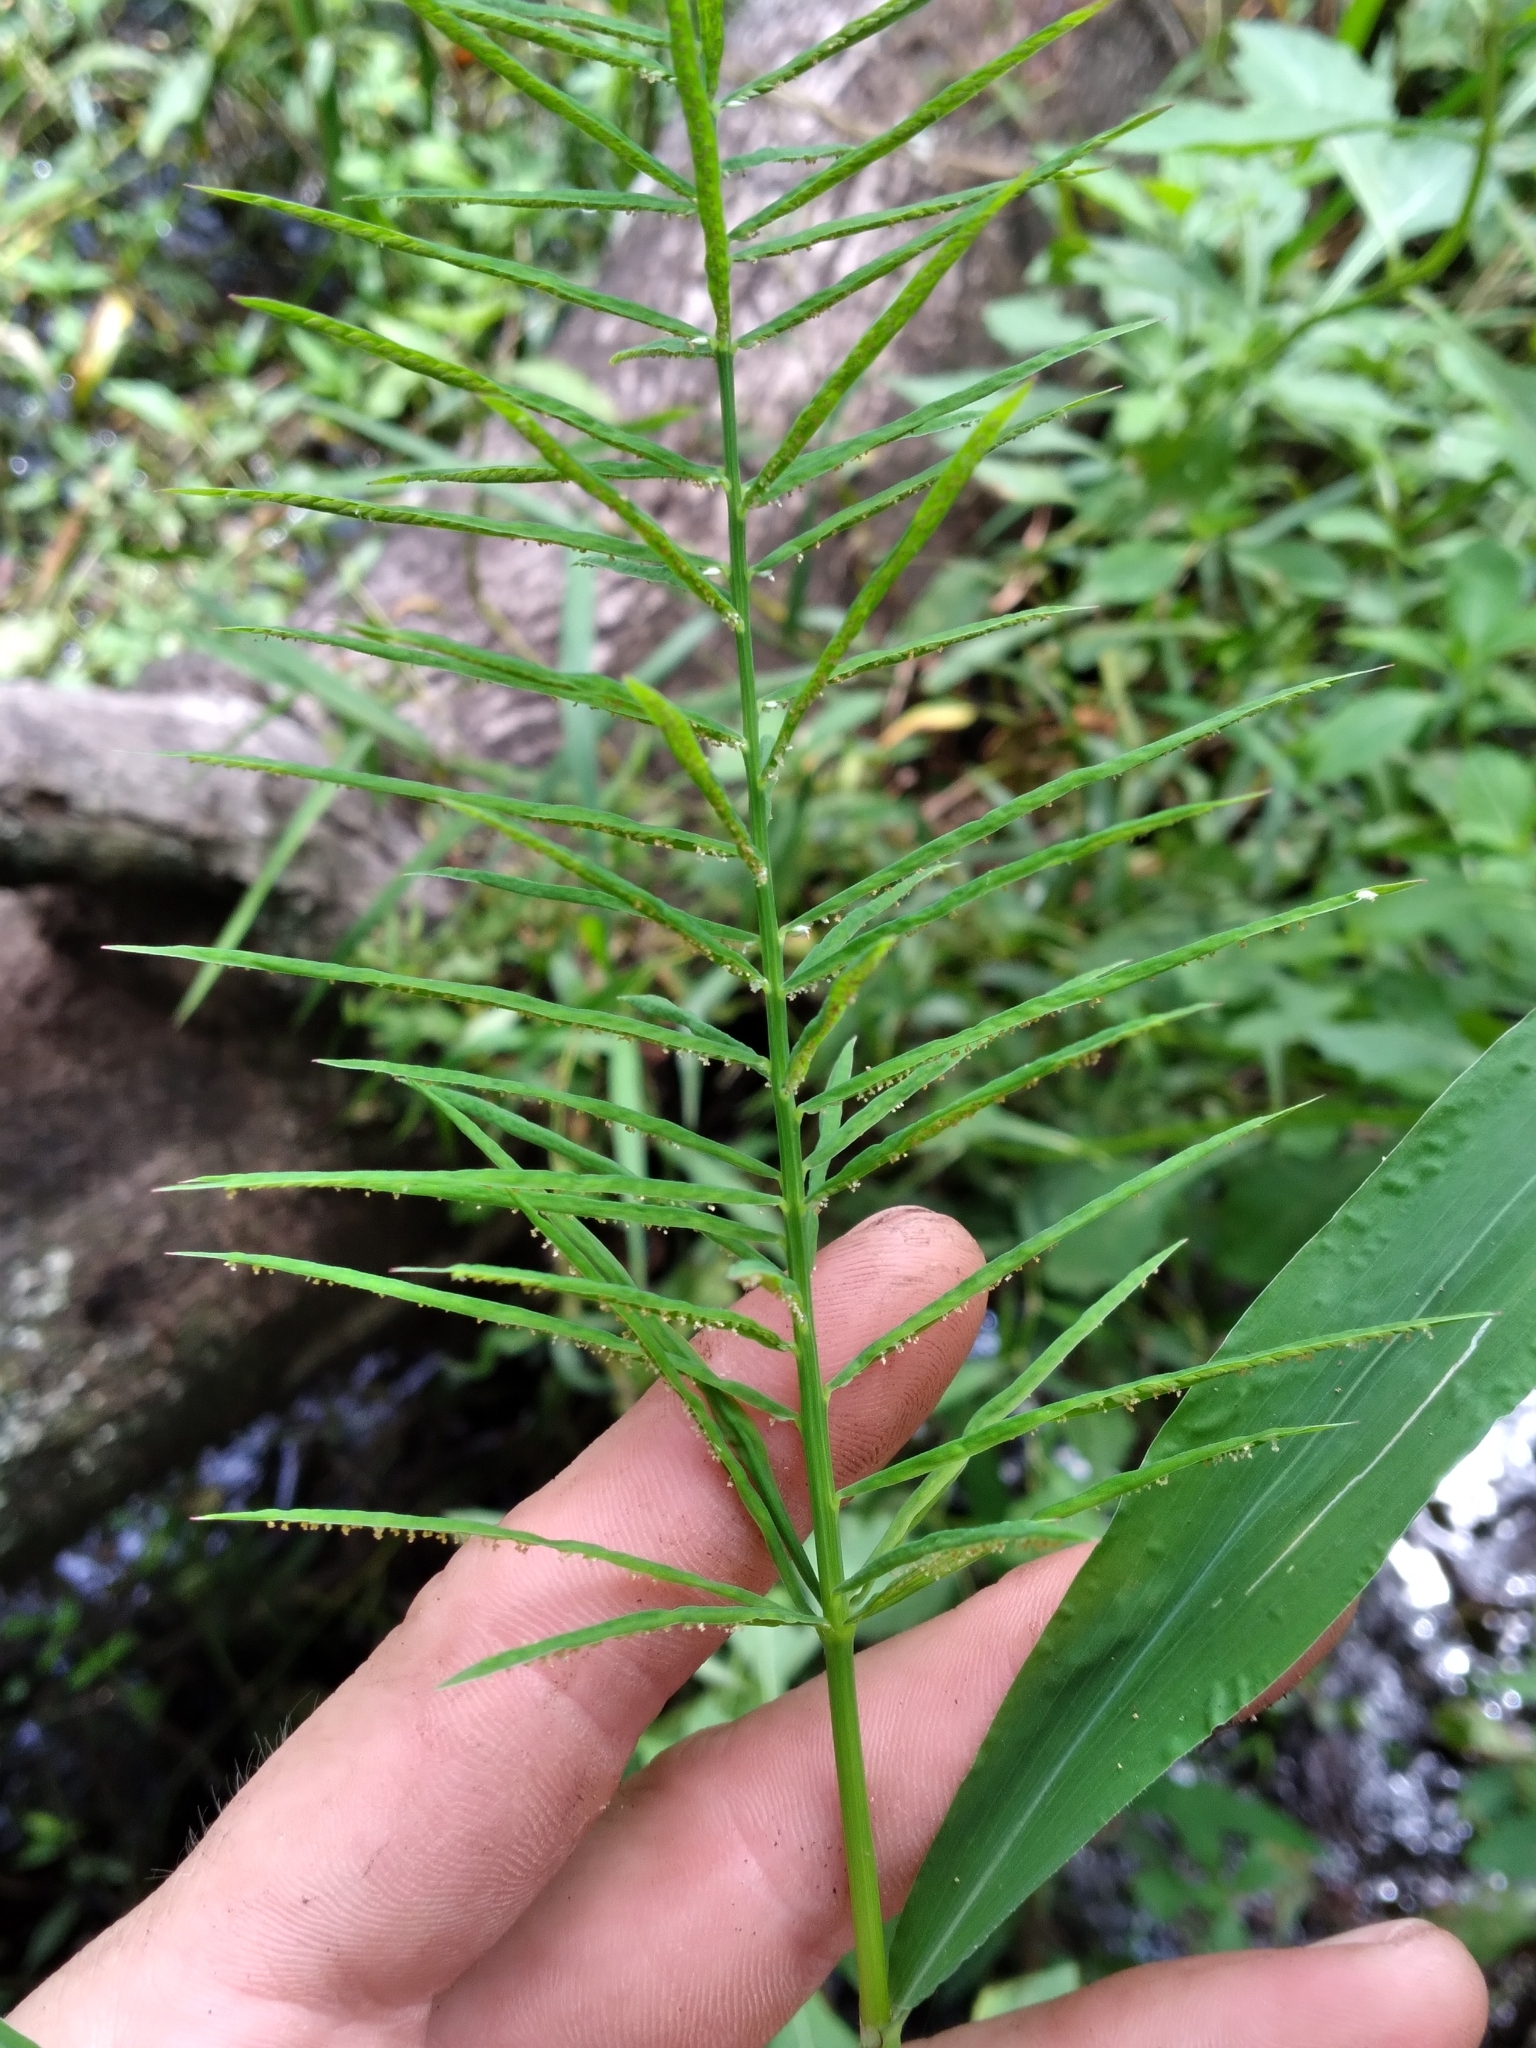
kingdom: Plantae
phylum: Tracheophyta
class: Liliopsida
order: Poales
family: Poaceae
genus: Paspalum
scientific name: Paspalum repens
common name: Water paspalum
